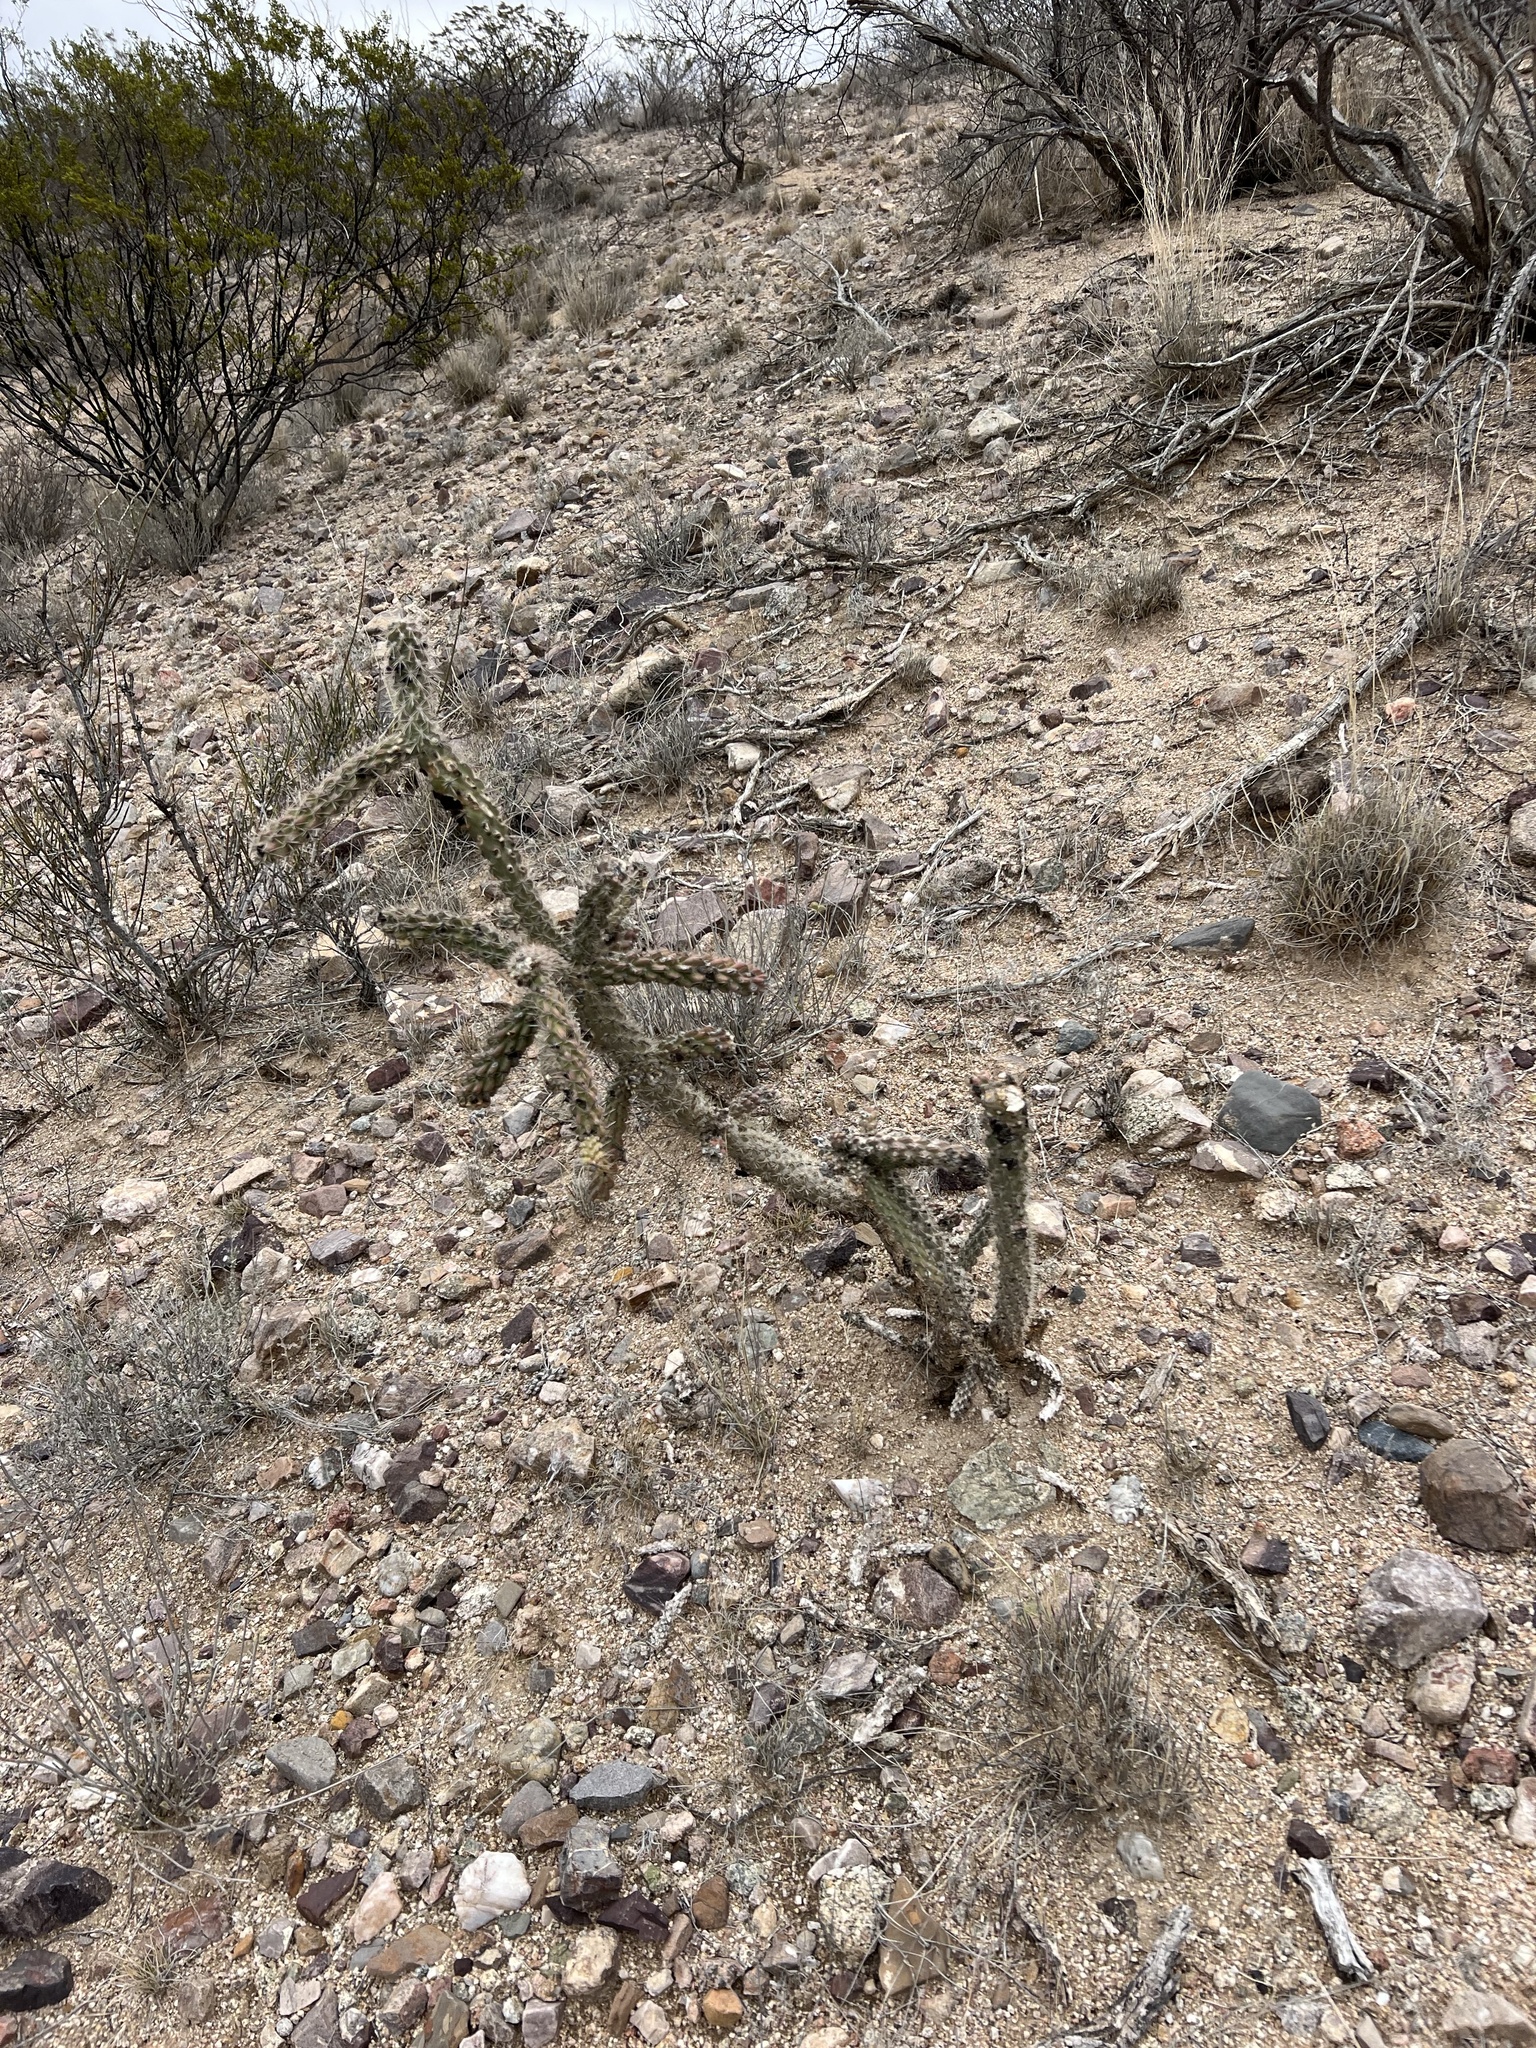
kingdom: Plantae
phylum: Tracheophyta
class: Magnoliopsida
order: Caryophyllales
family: Cactaceae
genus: Cylindropuntia
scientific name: Cylindropuntia imbricata
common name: Candelabrum cactus
